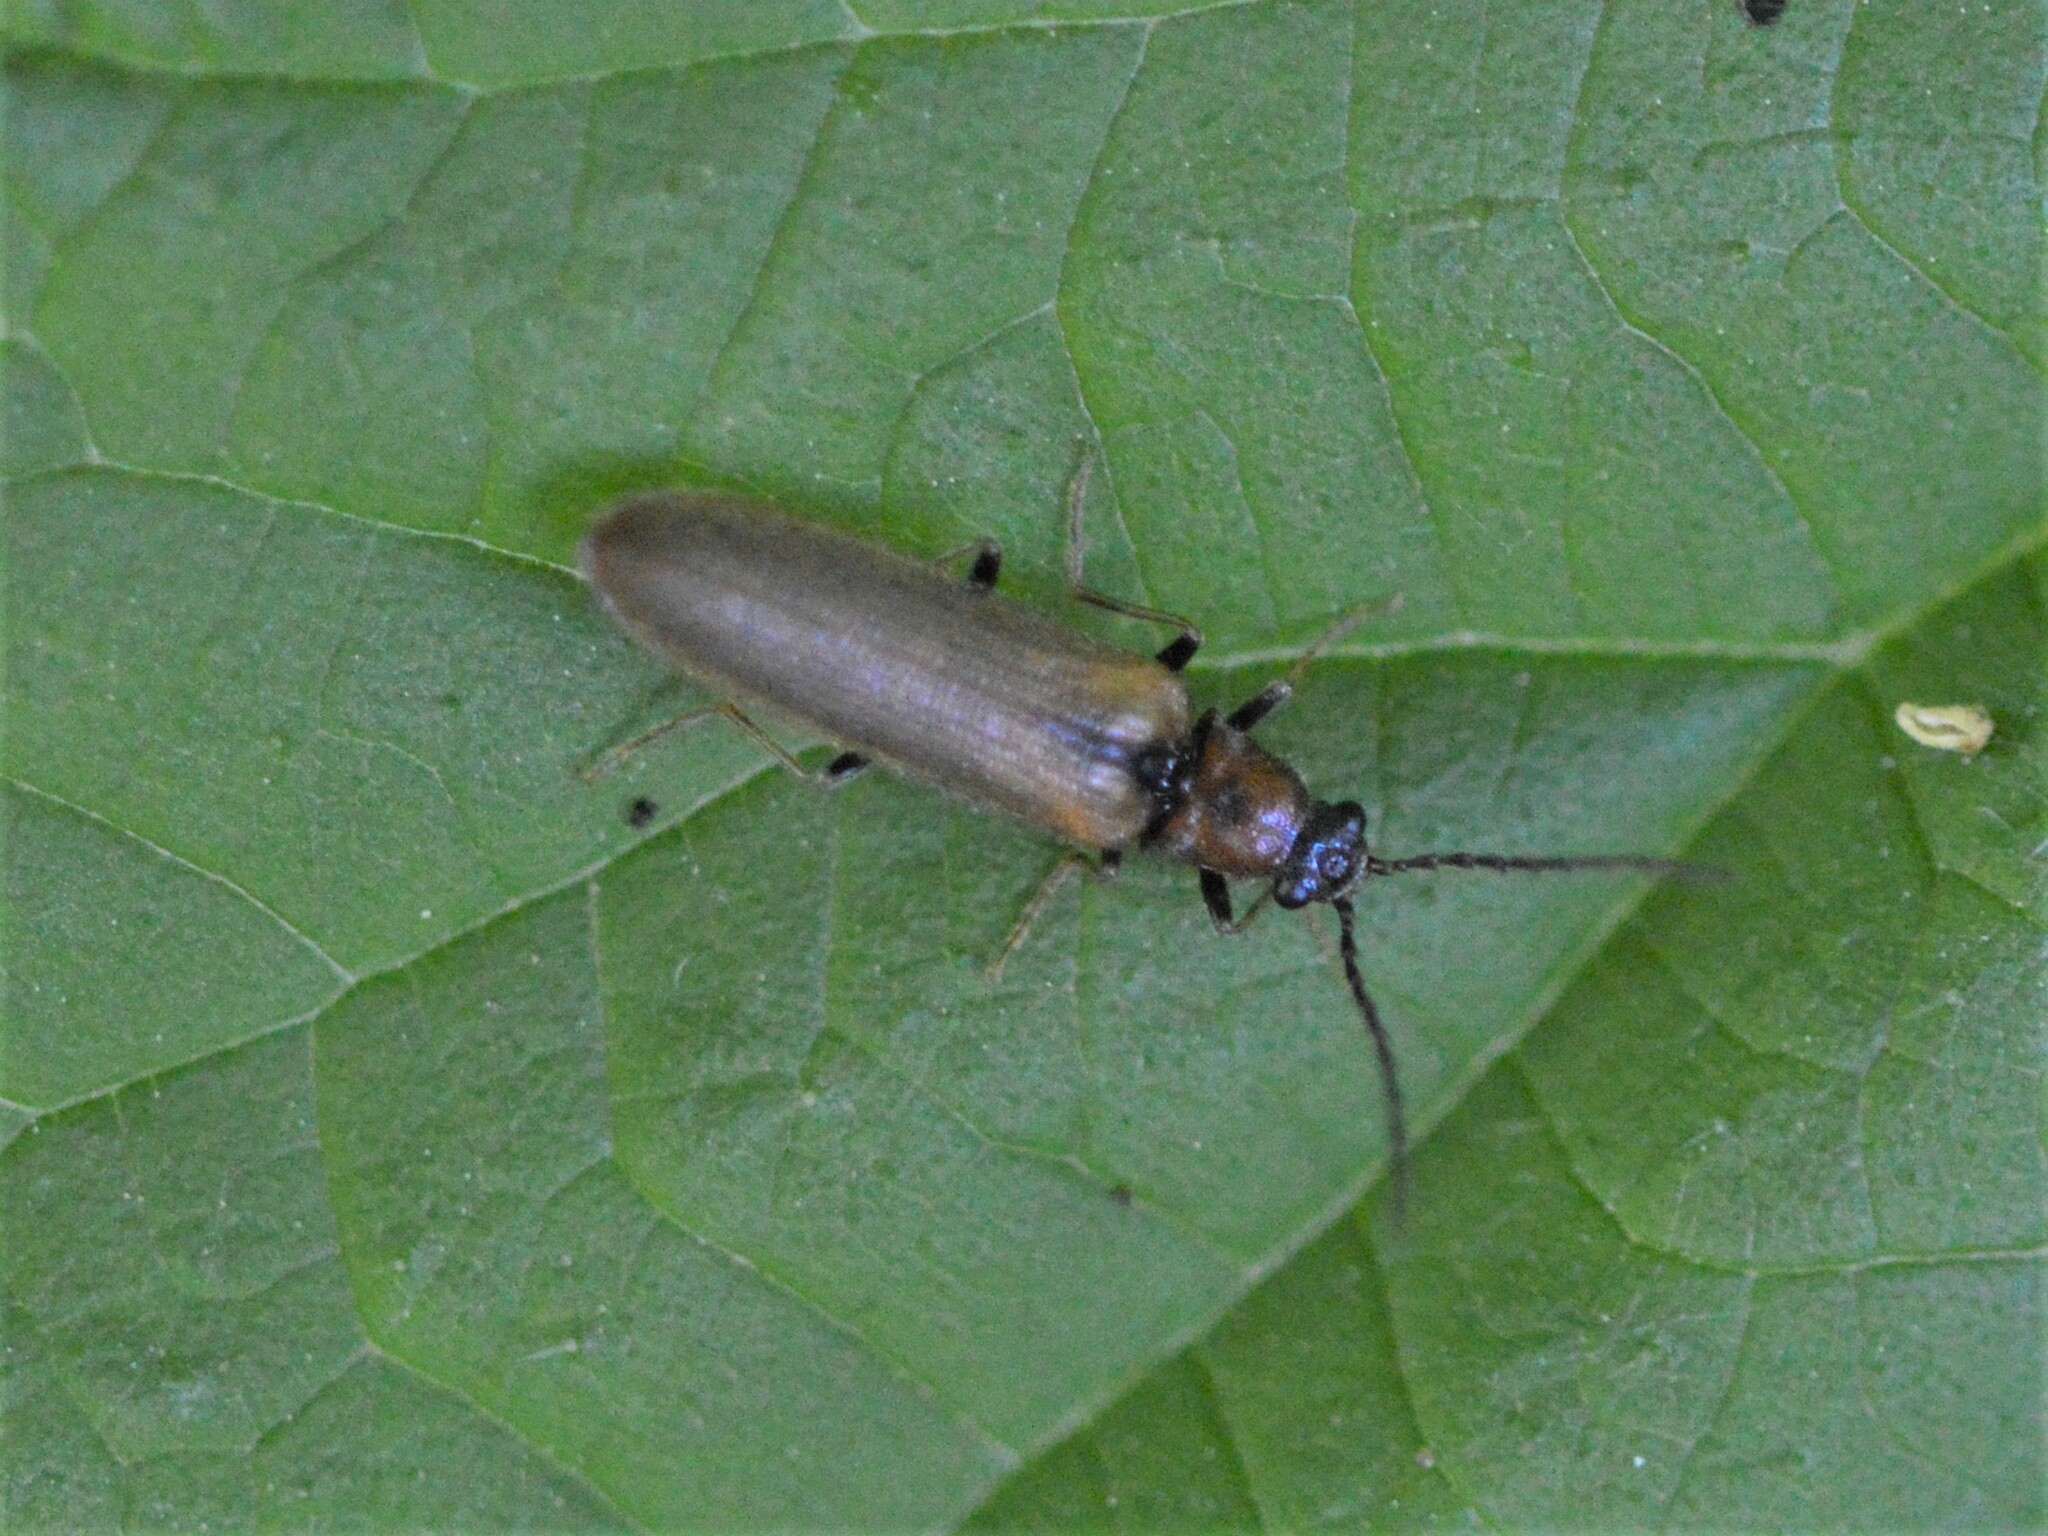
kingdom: Animalia
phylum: Arthropoda
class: Insecta
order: Coleoptera
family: Elateridae
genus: Denticollis
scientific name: Denticollis linearis
